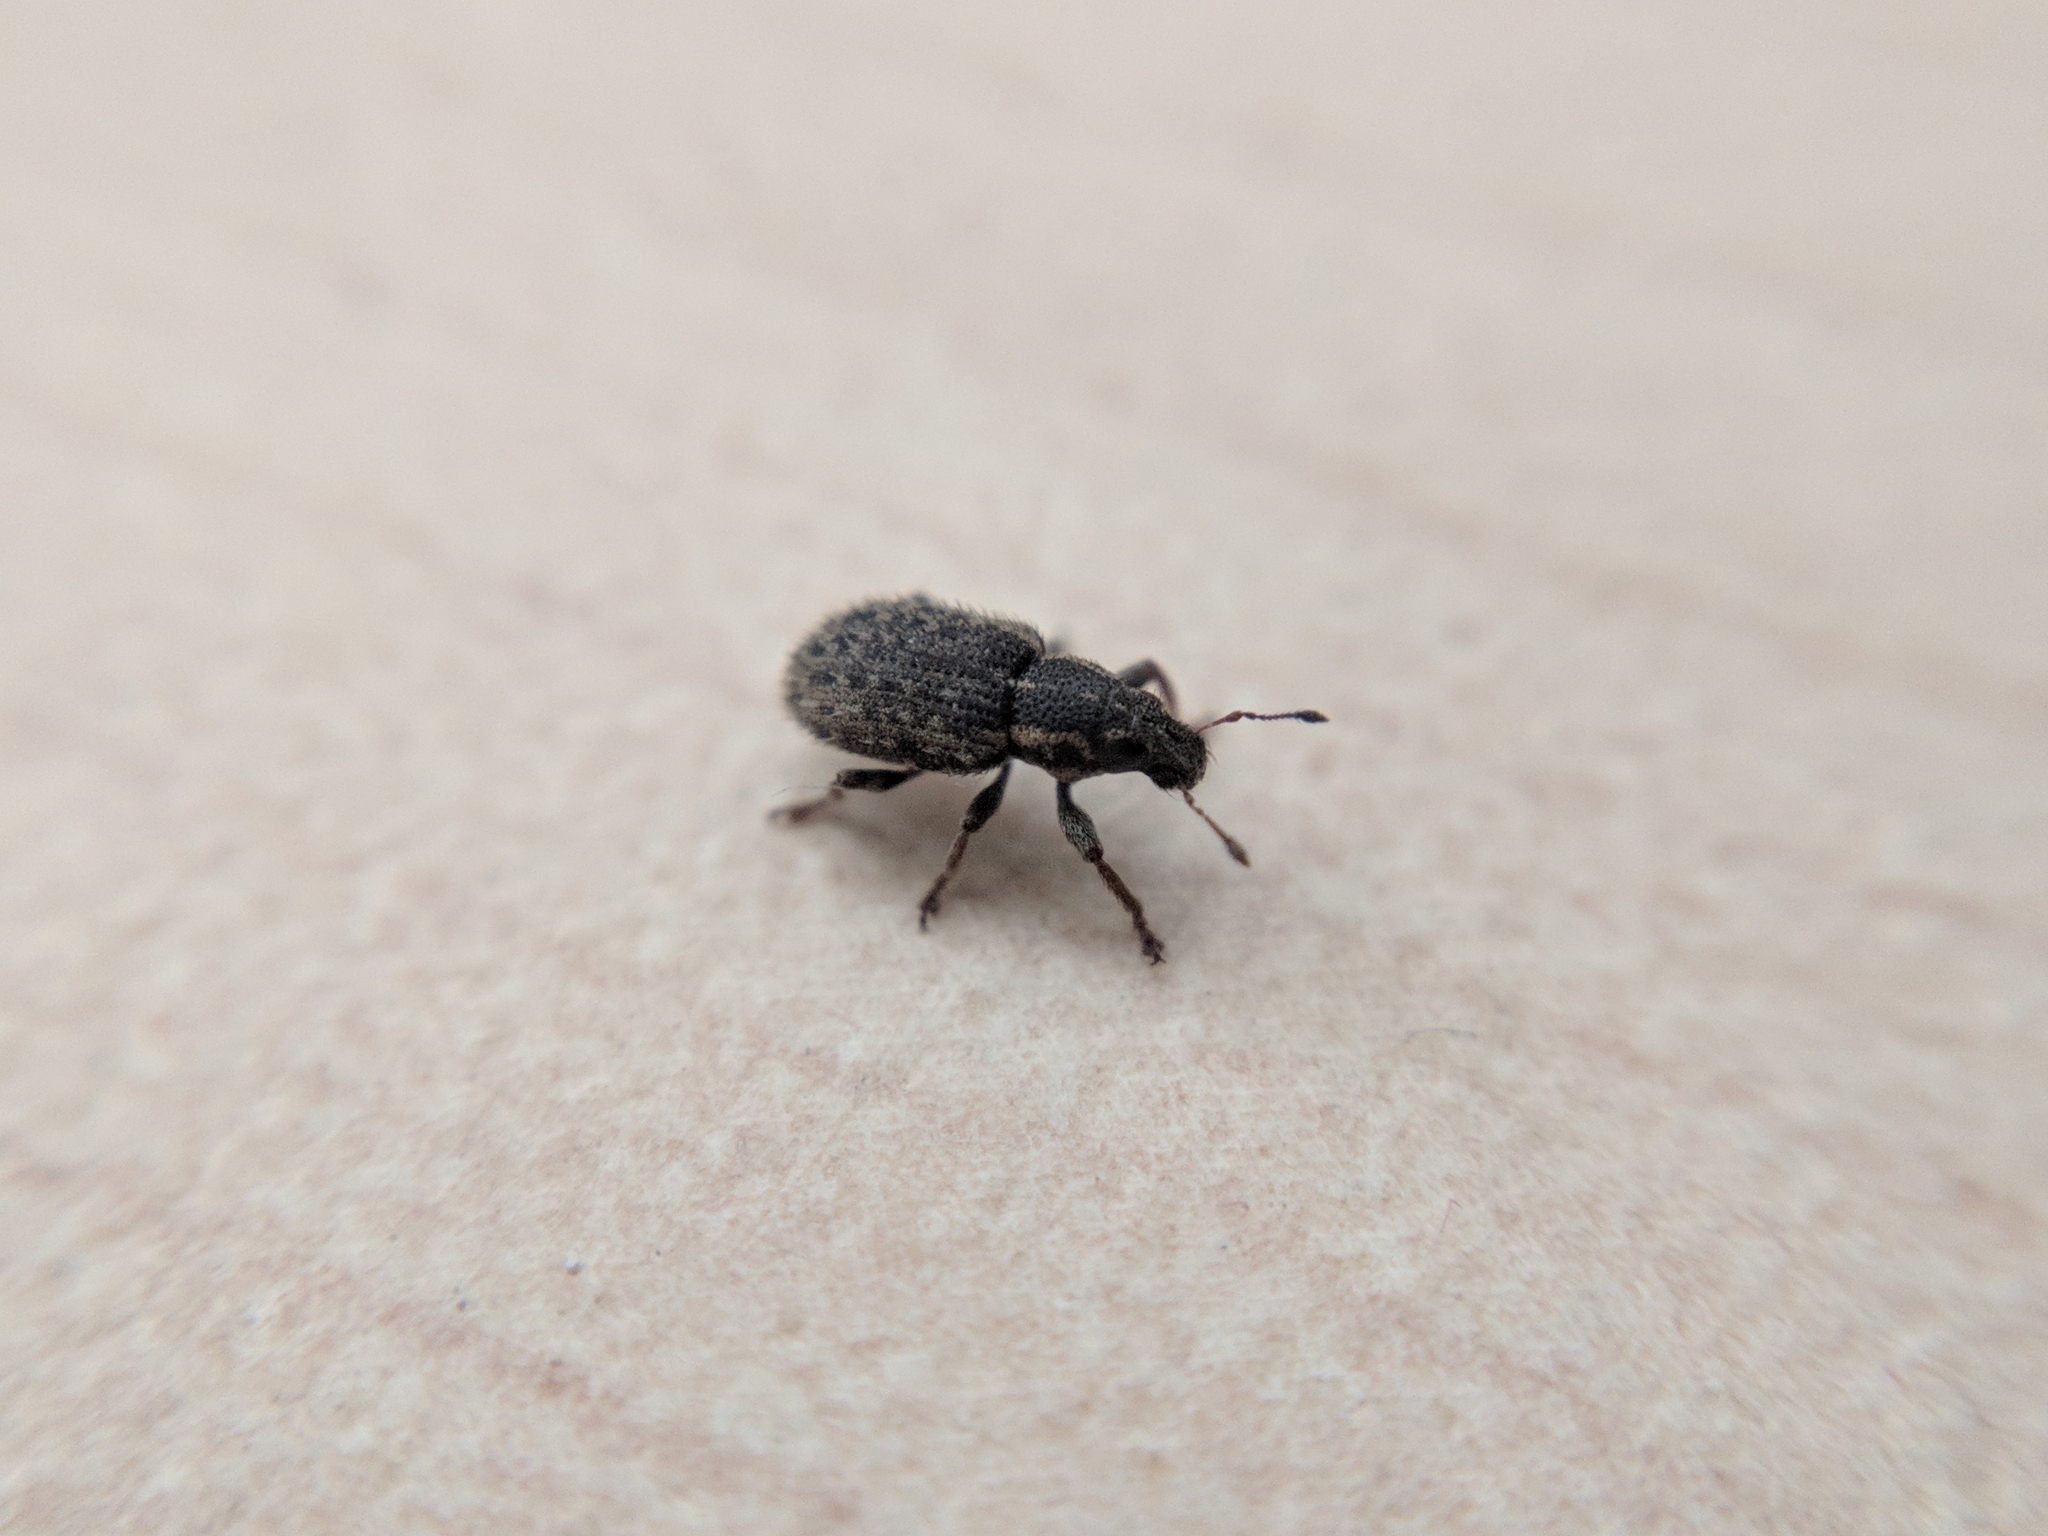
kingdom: Animalia
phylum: Arthropoda
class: Insecta
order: Coleoptera
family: Curculionidae
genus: Sitona
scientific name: Sitona hispidulus
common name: Clover weevil
